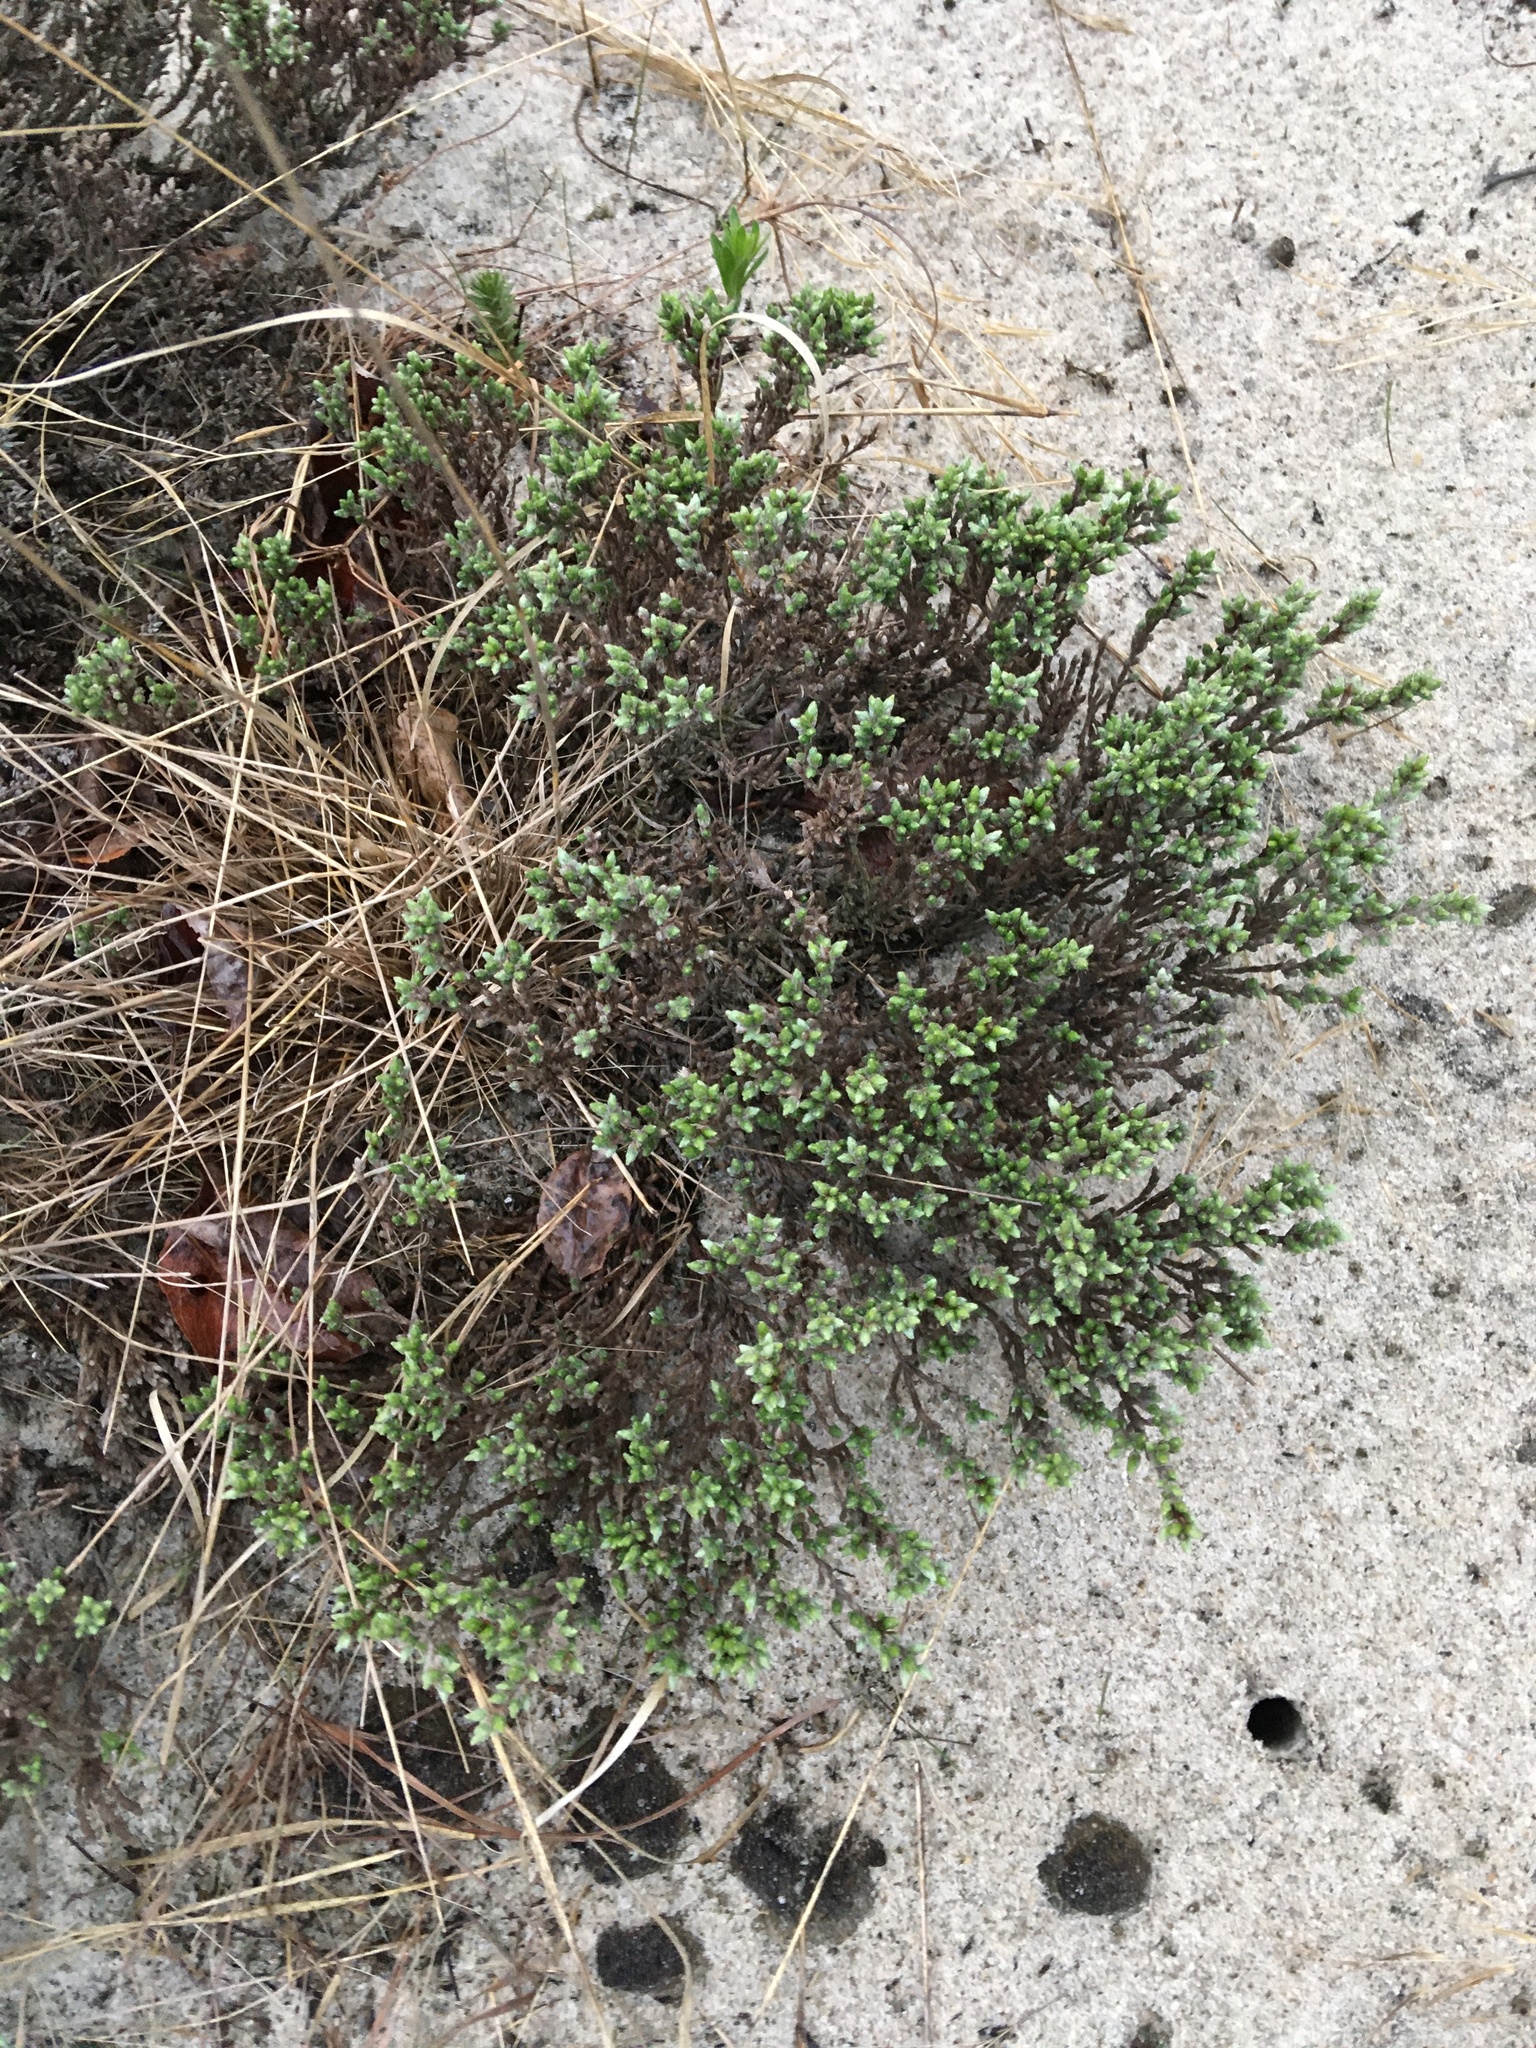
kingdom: Plantae
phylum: Tracheophyta
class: Magnoliopsida
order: Malvales
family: Cistaceae
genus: Hudsonia
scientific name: Hudsonia tomentosa
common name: Beach-heath
